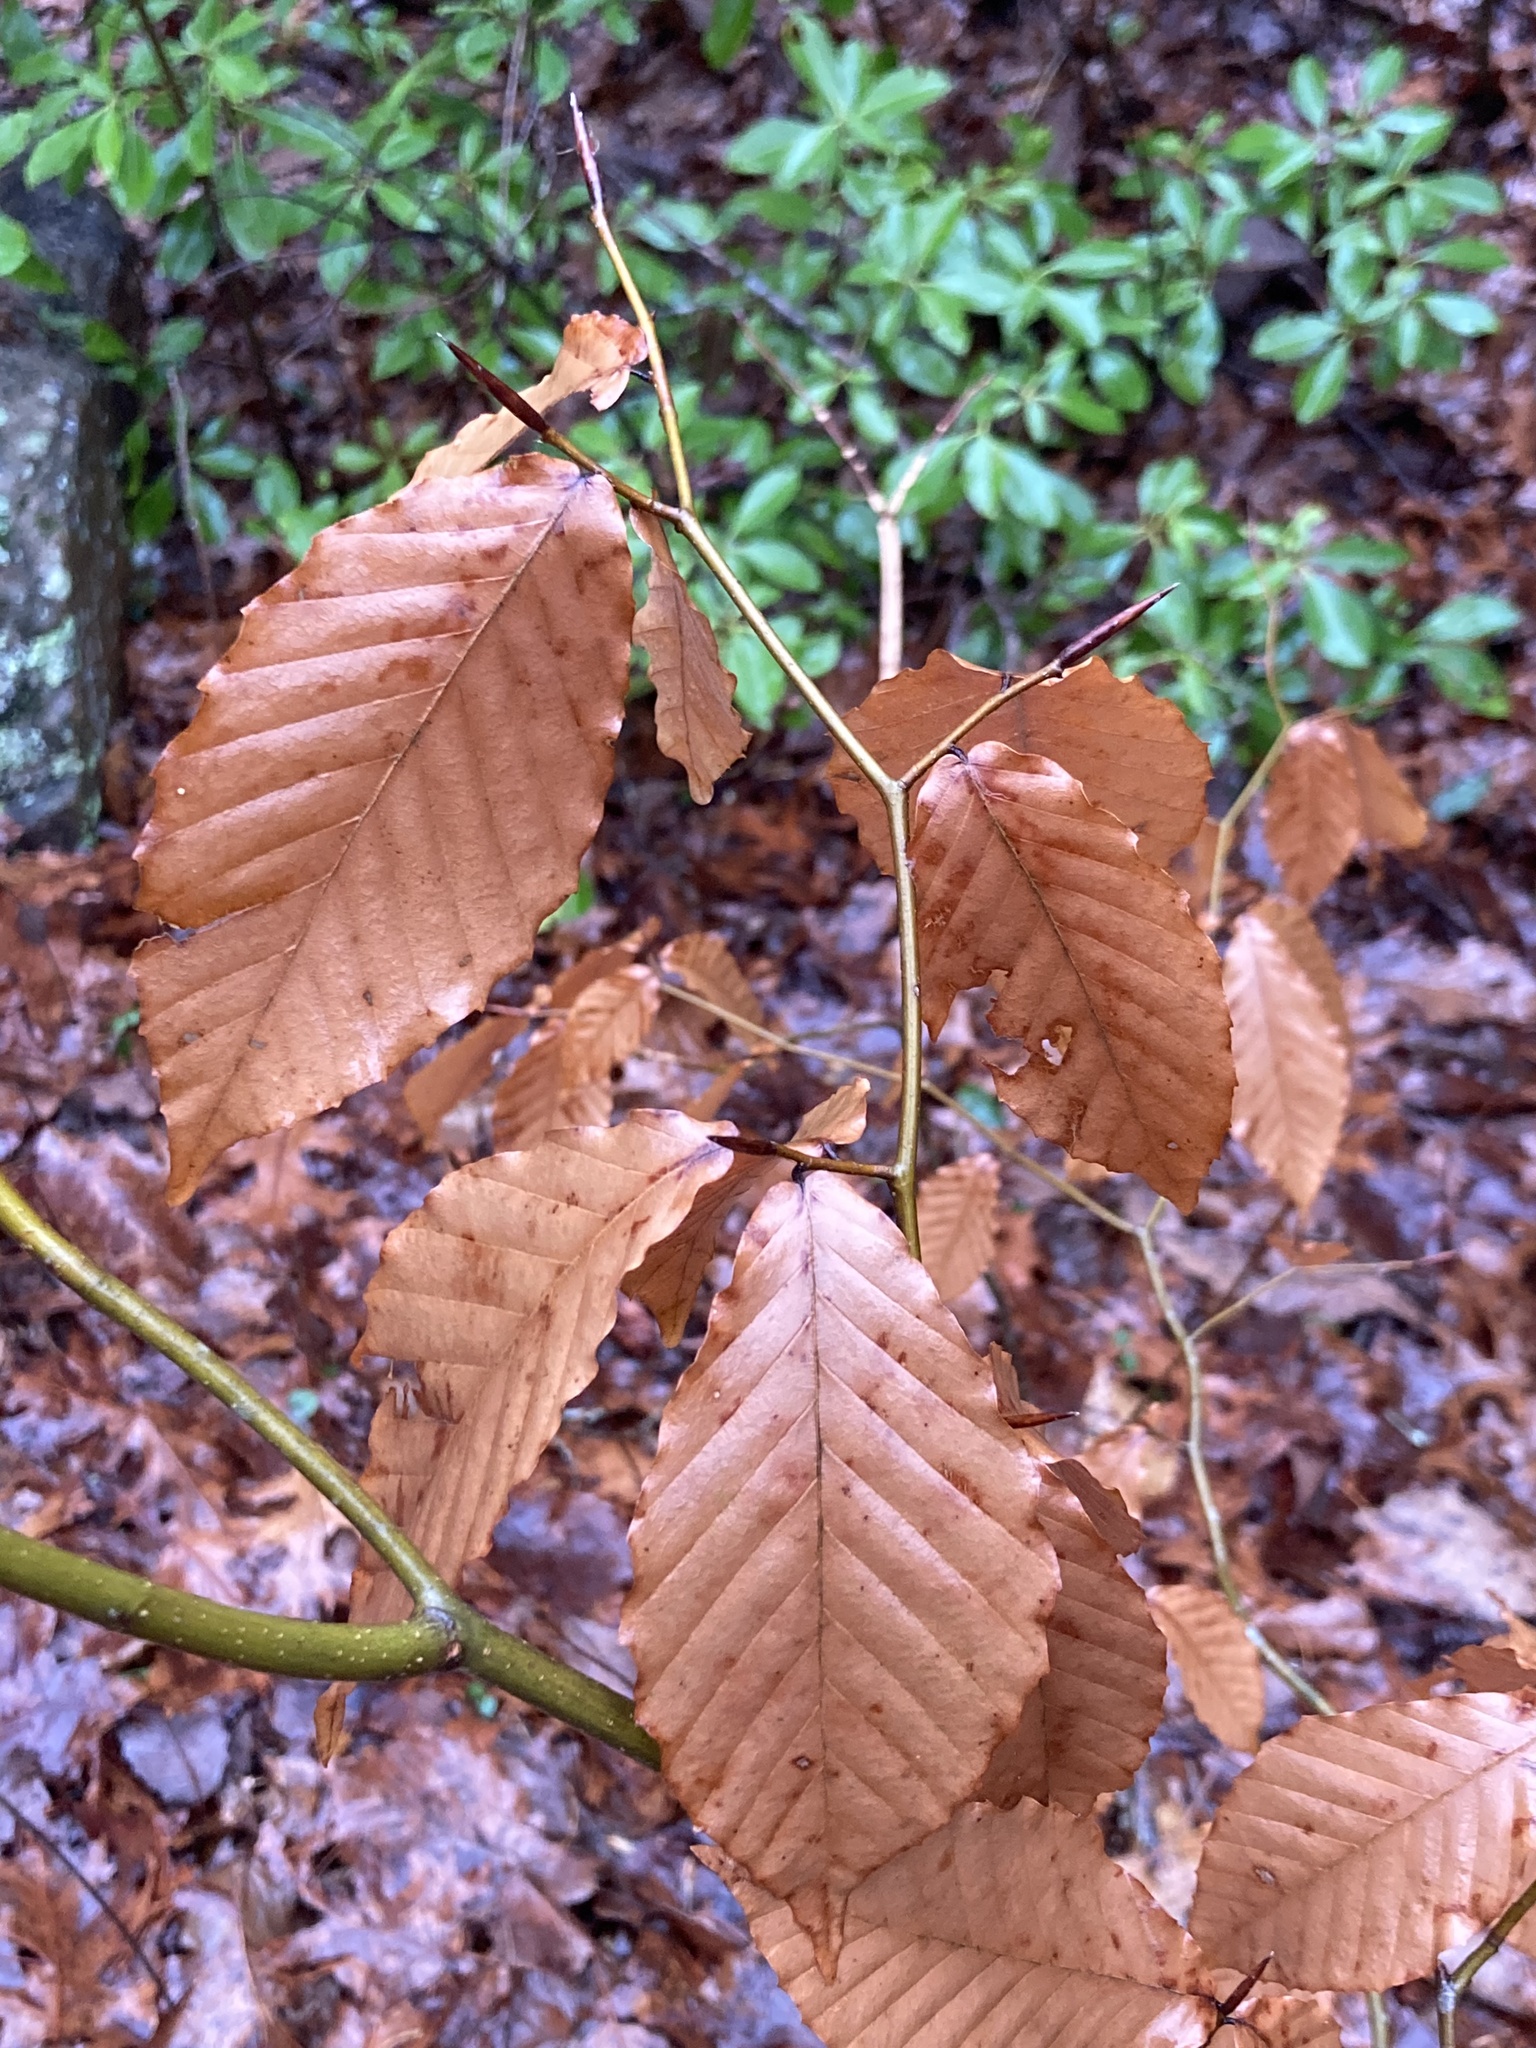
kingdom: Plantae
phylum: Tracheophyta
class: Magnoliopsida
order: Fagales
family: Fagaceae
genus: Fagus
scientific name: Fagus grandifolia
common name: American beech
